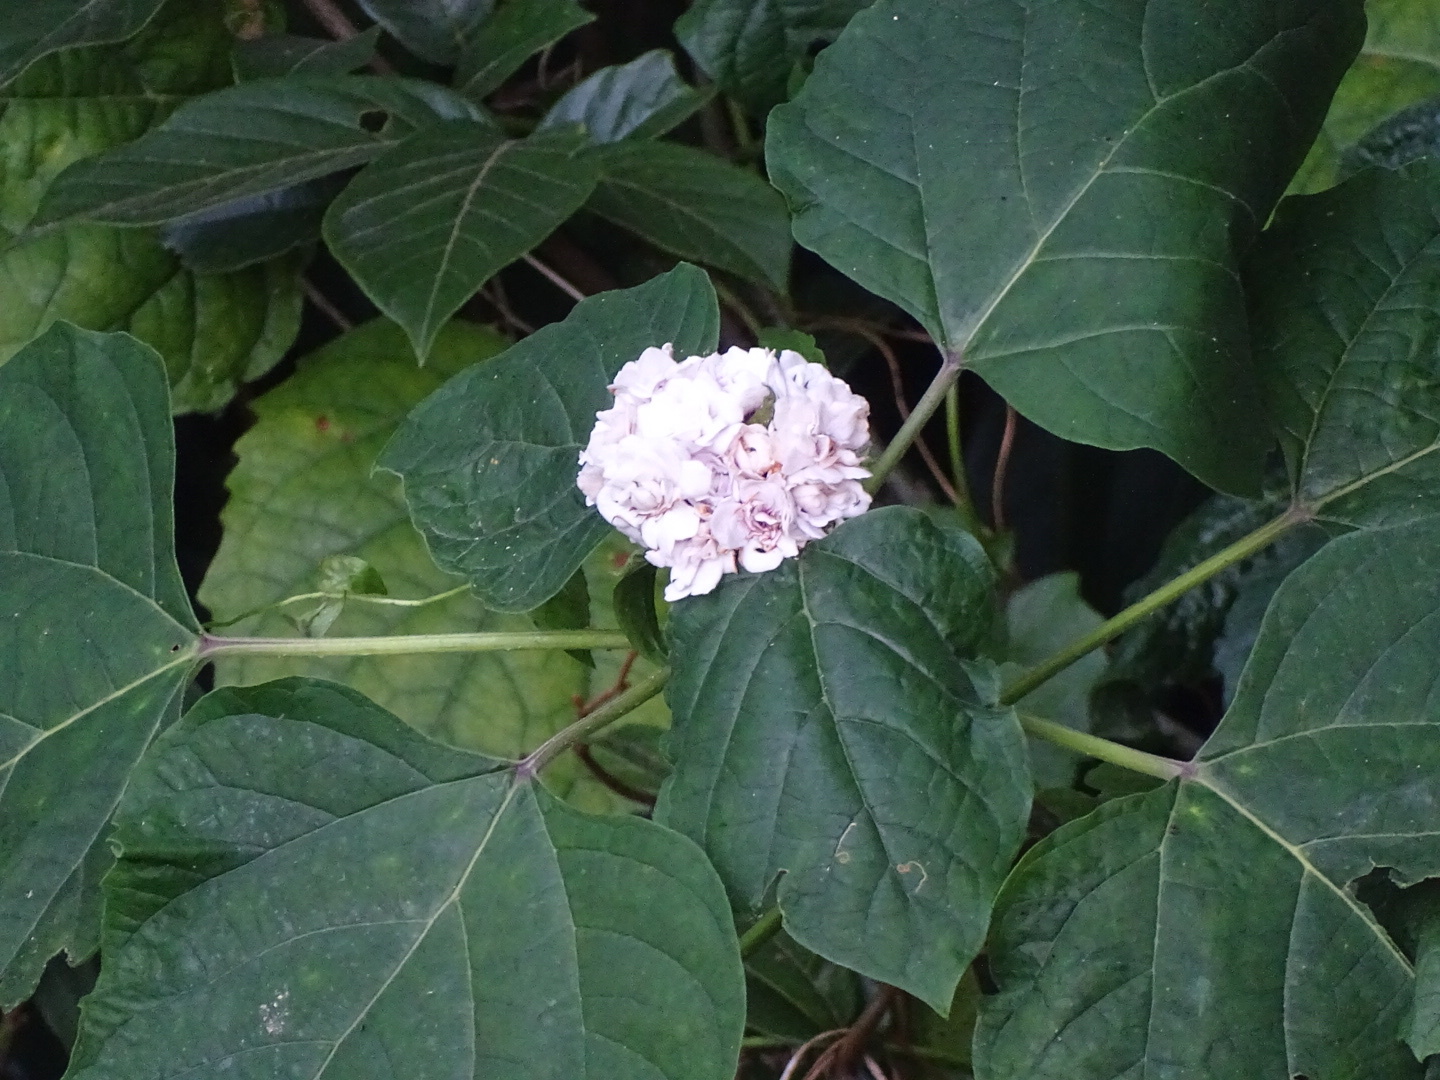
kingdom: Plantae
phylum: Tracheophyta
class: Magnoliopsida
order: Lamiales
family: Lamiaceae
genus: Clerodendrum
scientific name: Clerodendrum chinense
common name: Stickbush
